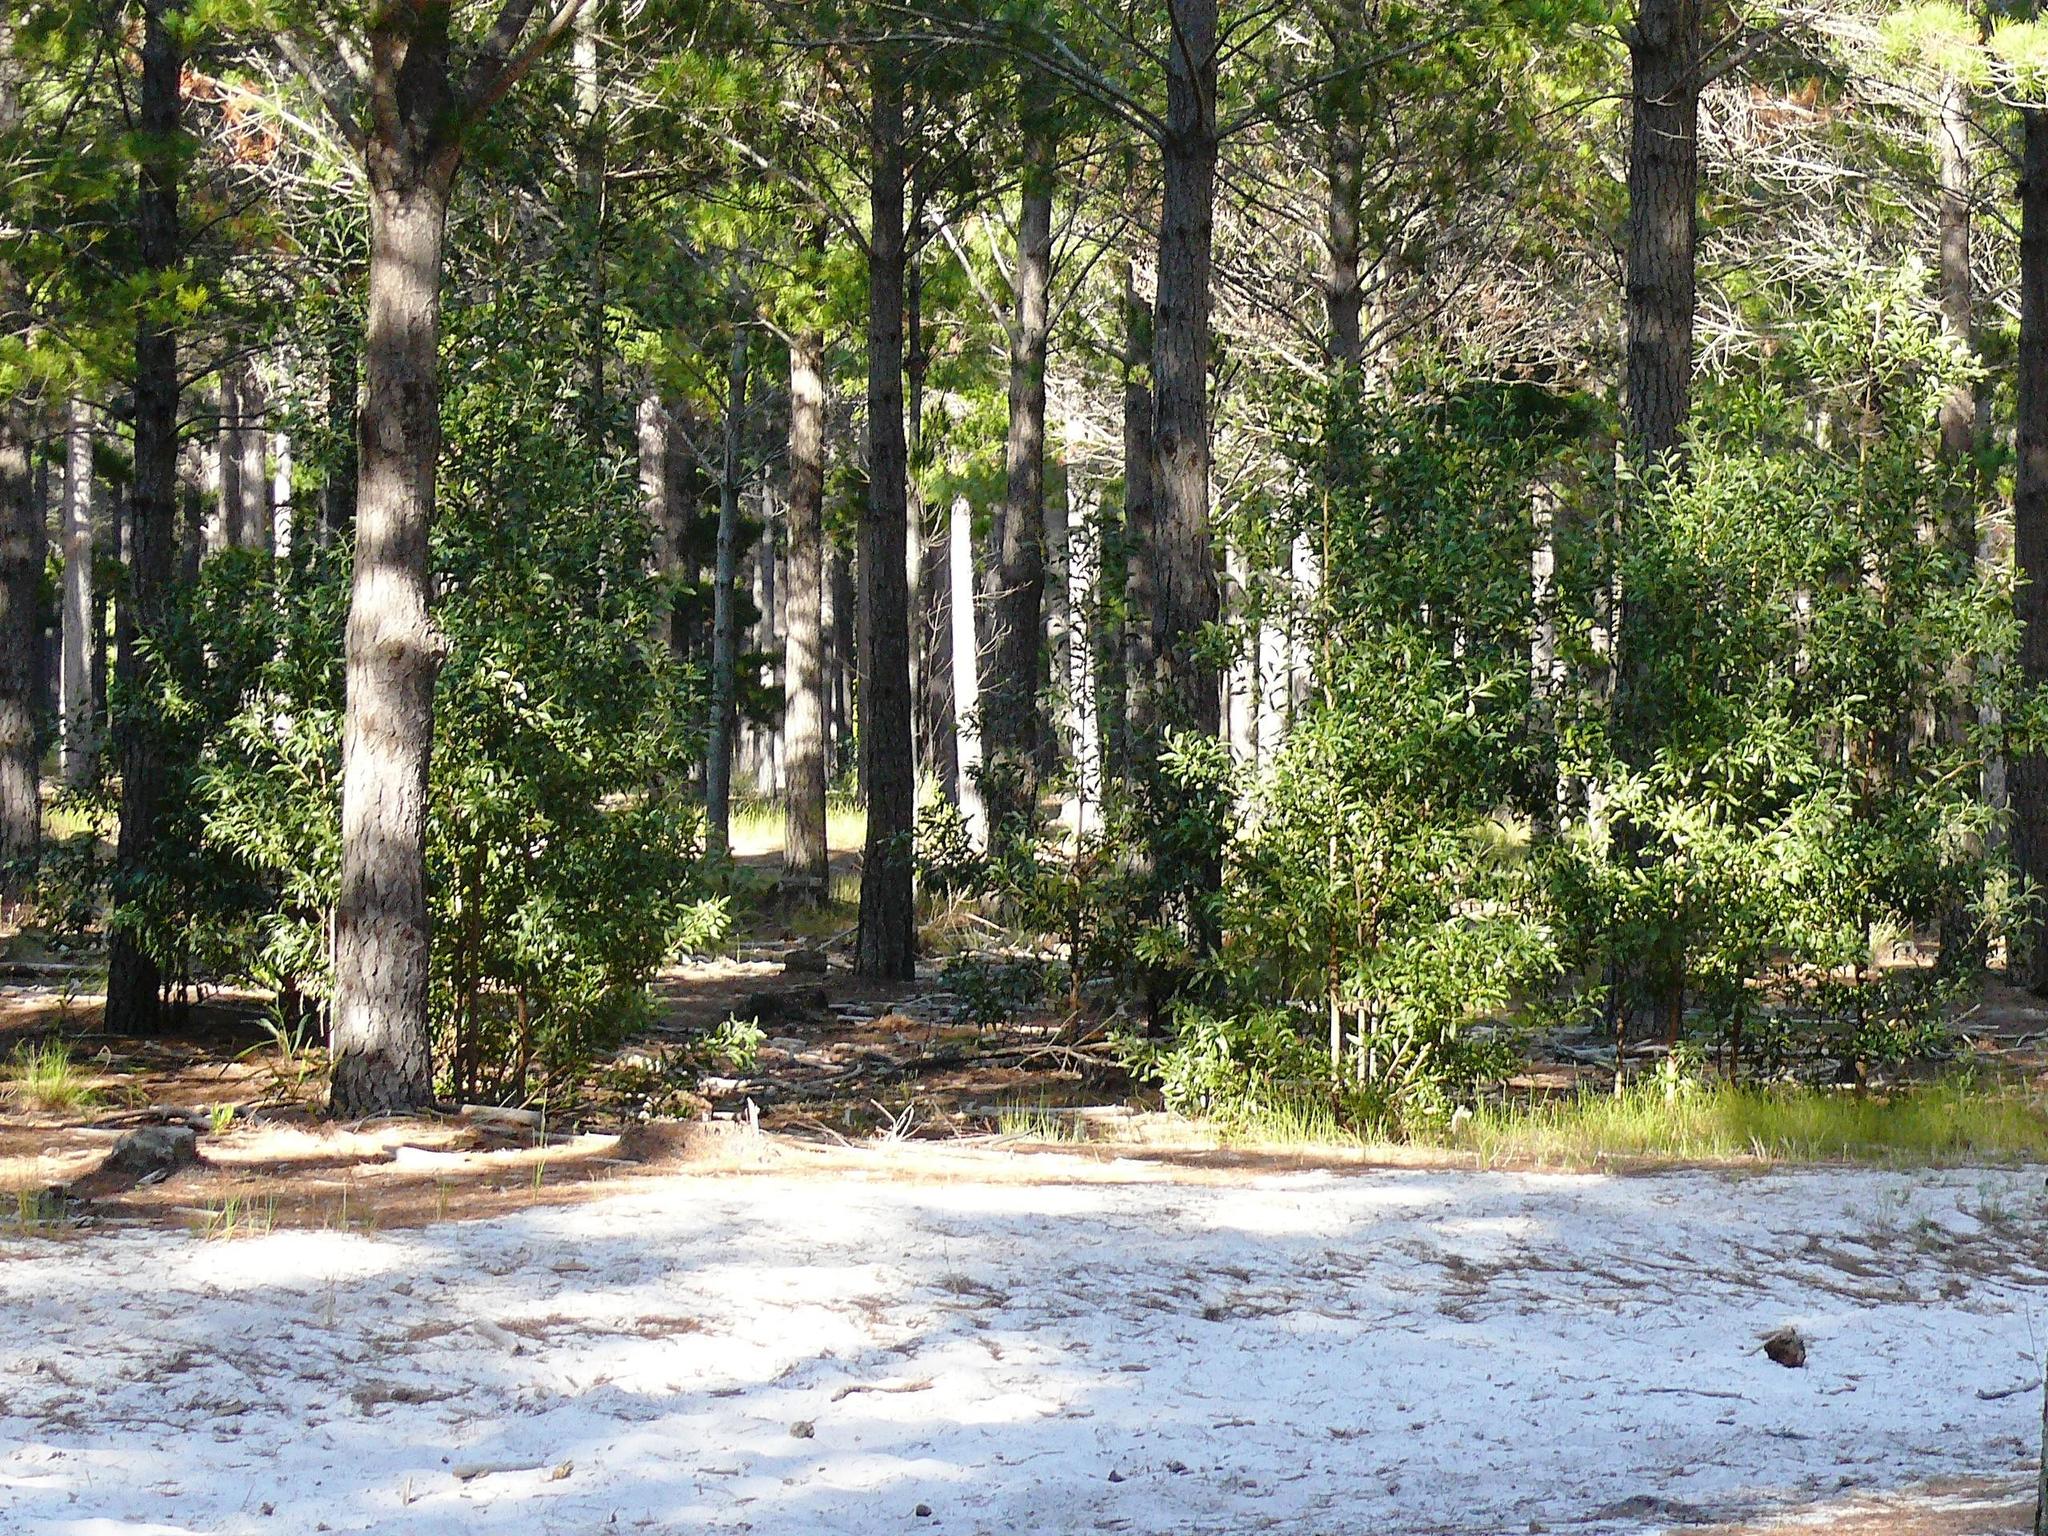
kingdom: Plantae
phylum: Tracheophyta
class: Magnoliopsida
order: Fabales
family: Fabaceae
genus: Acacia
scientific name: Acacia melanoxylon
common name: Blackwood
